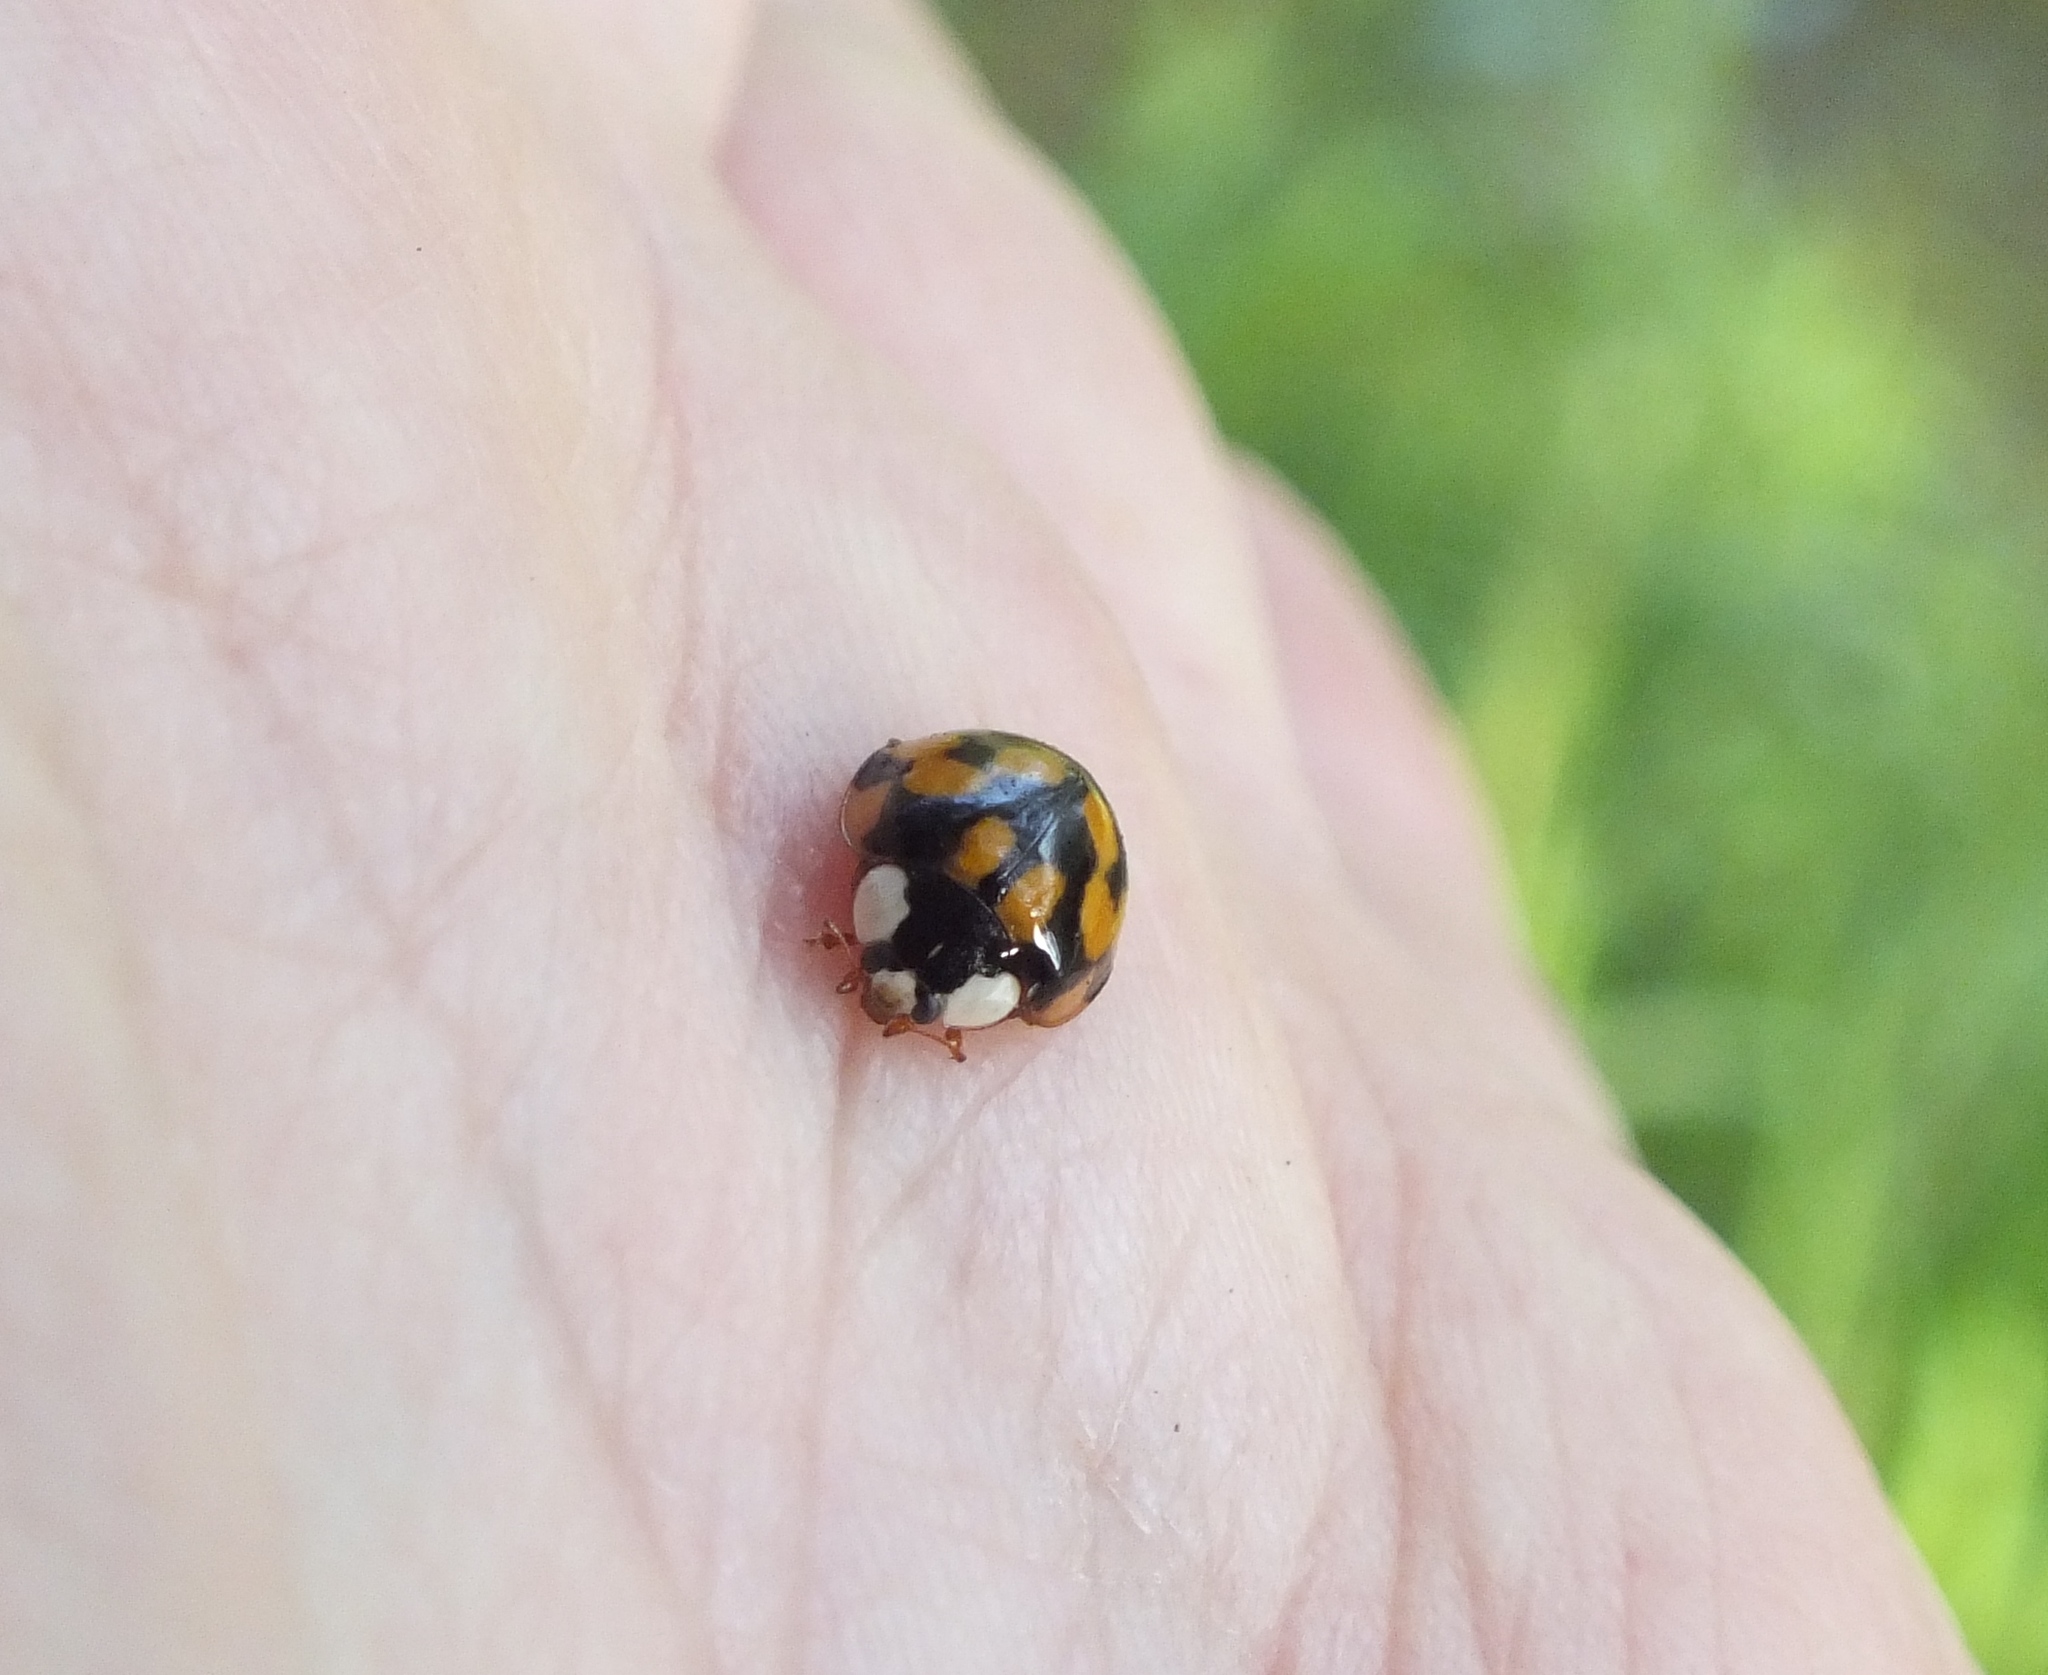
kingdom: Animalia
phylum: Arthropoda
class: Insecta
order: Coleoptera
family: Coccinellidae
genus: Harmonia
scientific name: Harmonia axyridis
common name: Harlequin ladybird
